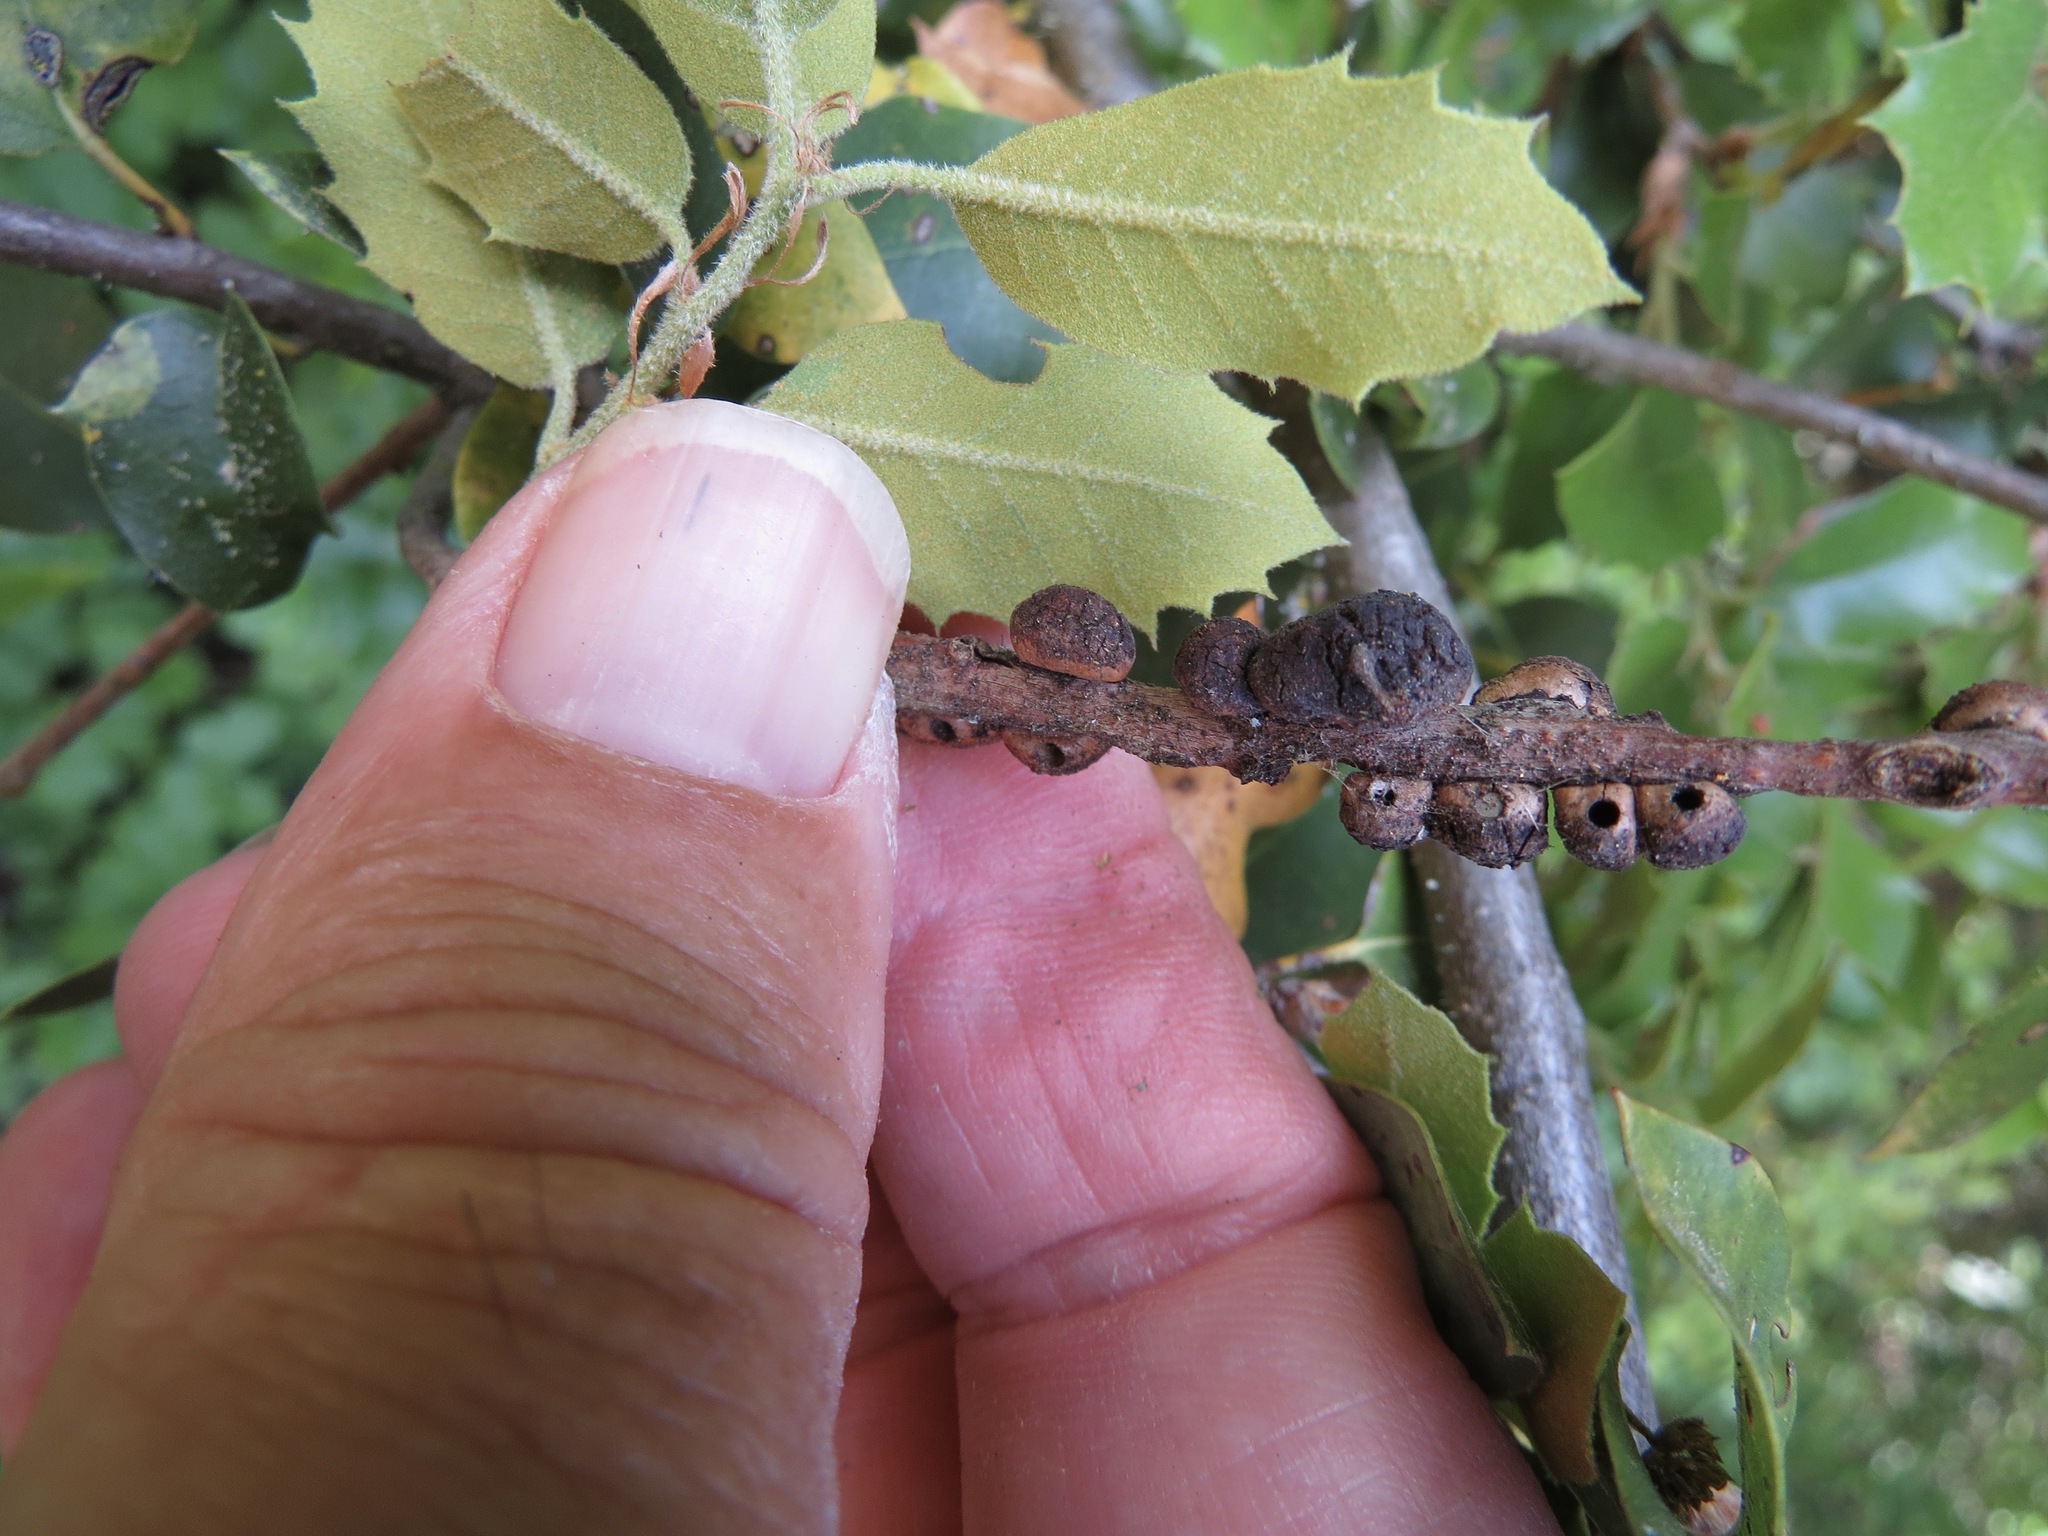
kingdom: Animalia
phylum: Arthropoda
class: Insecta
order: Hymenoptera
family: Cynipidae
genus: Disholandricus
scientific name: Disholandricus
